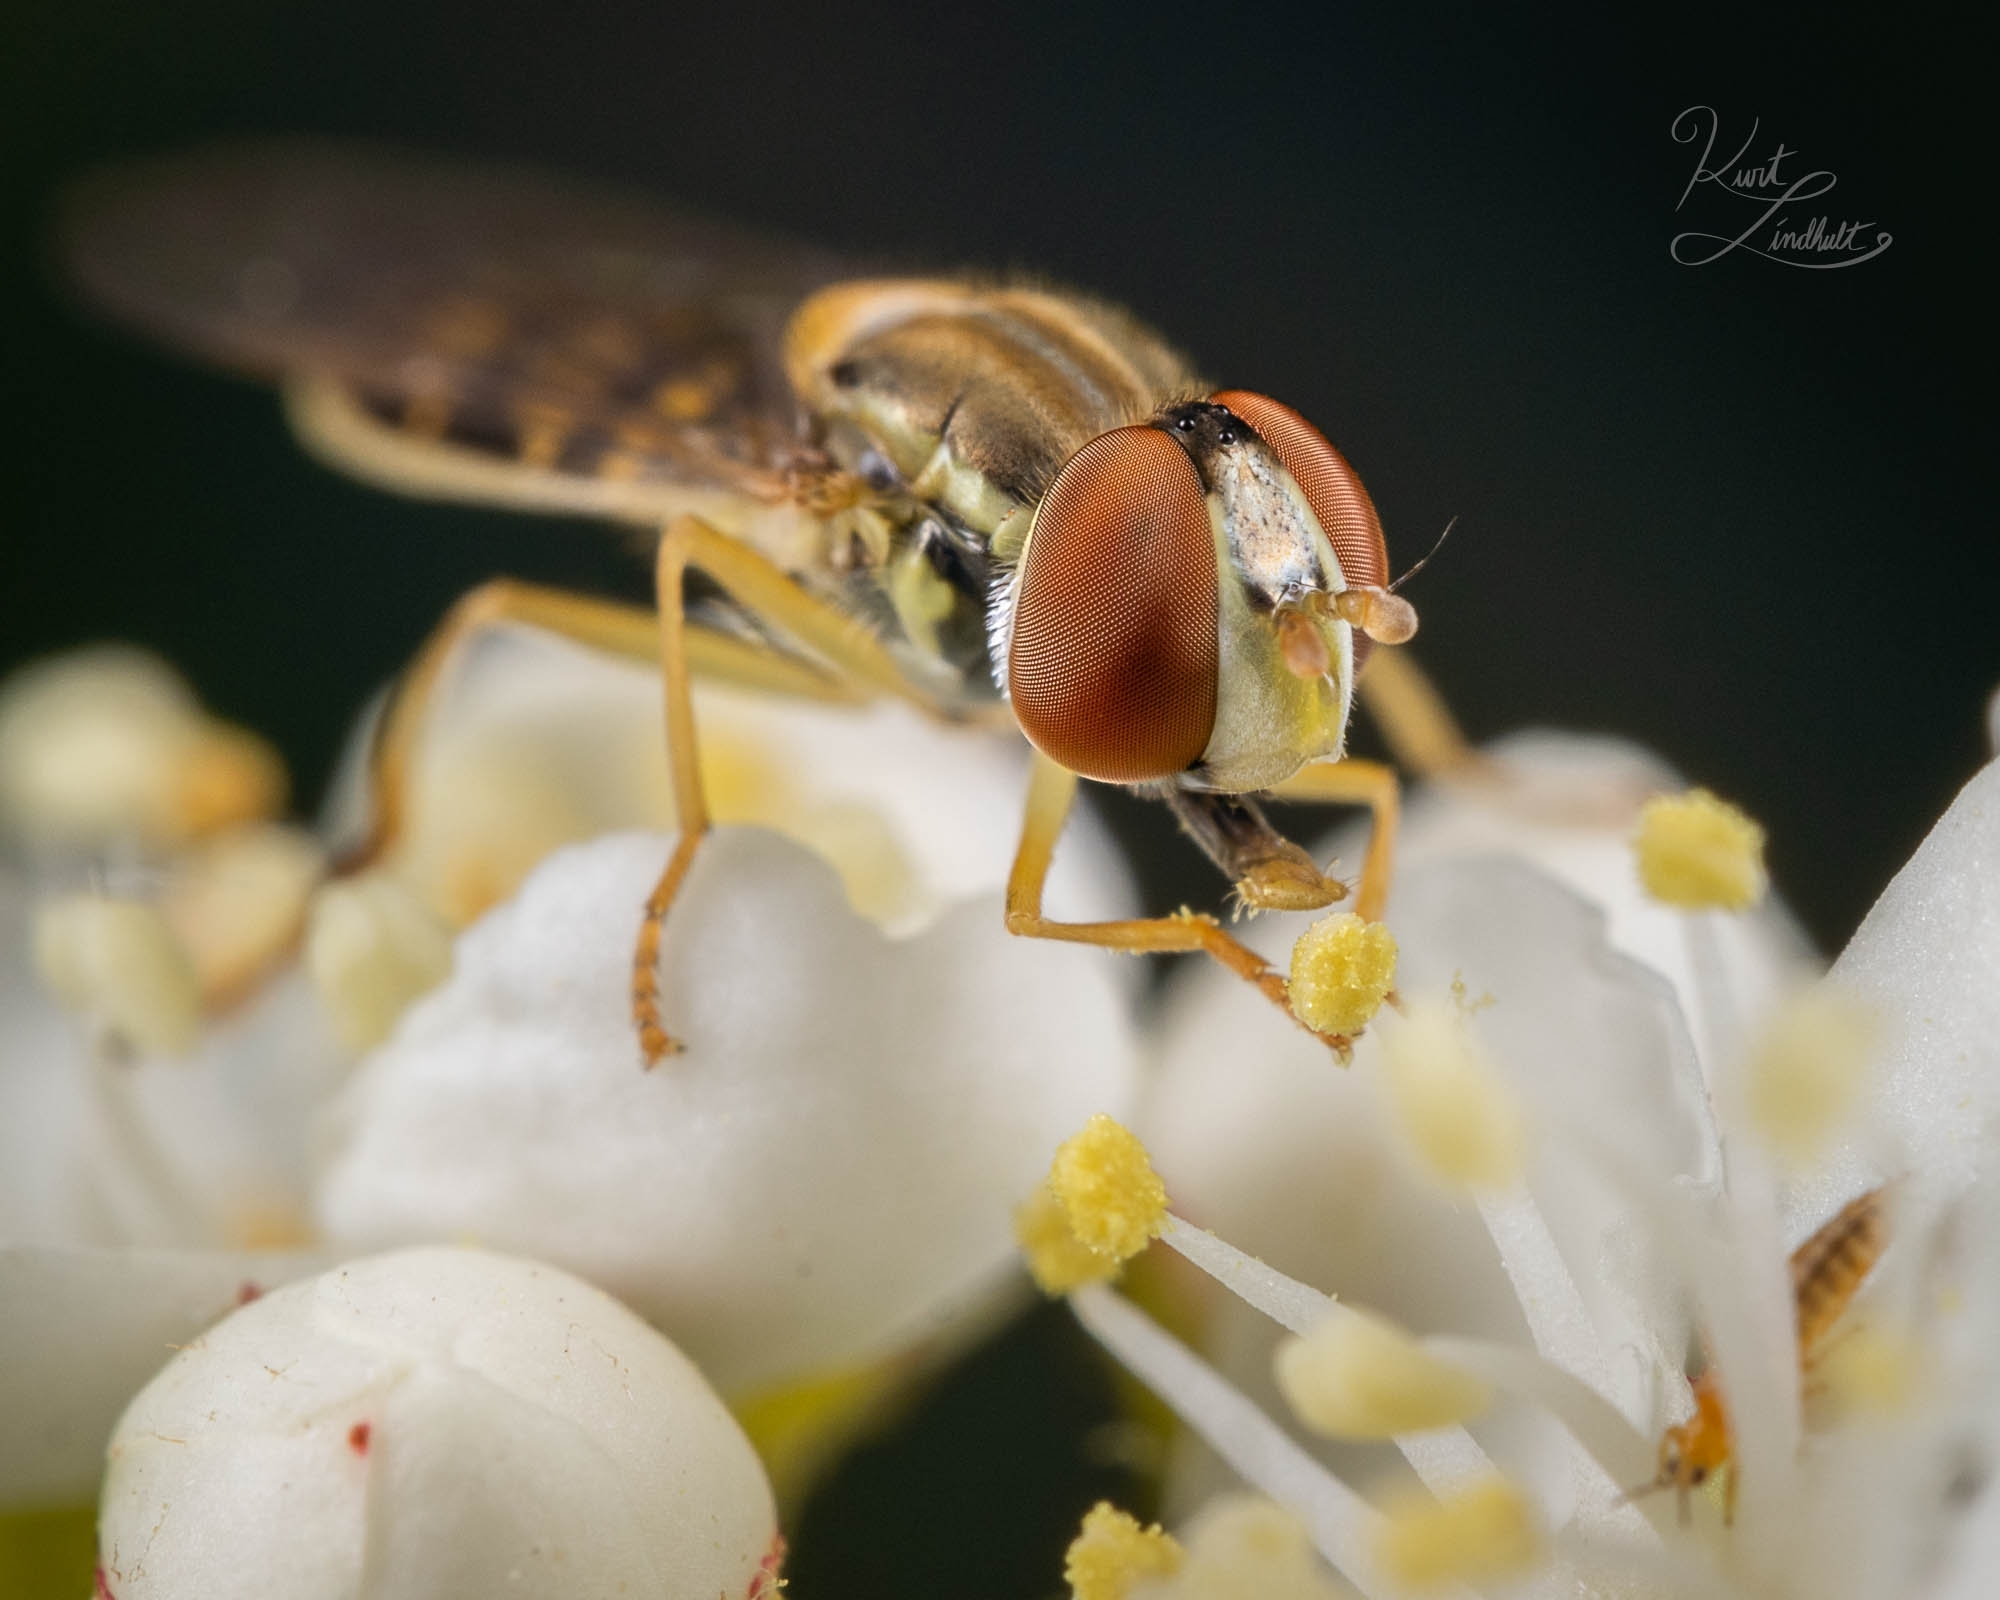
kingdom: Animalia
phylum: Arthropoda
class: Insecta
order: Diptera
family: Syrphidae
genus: Toxomerus
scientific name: Toxomerus marginatus
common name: Syrphid fly
